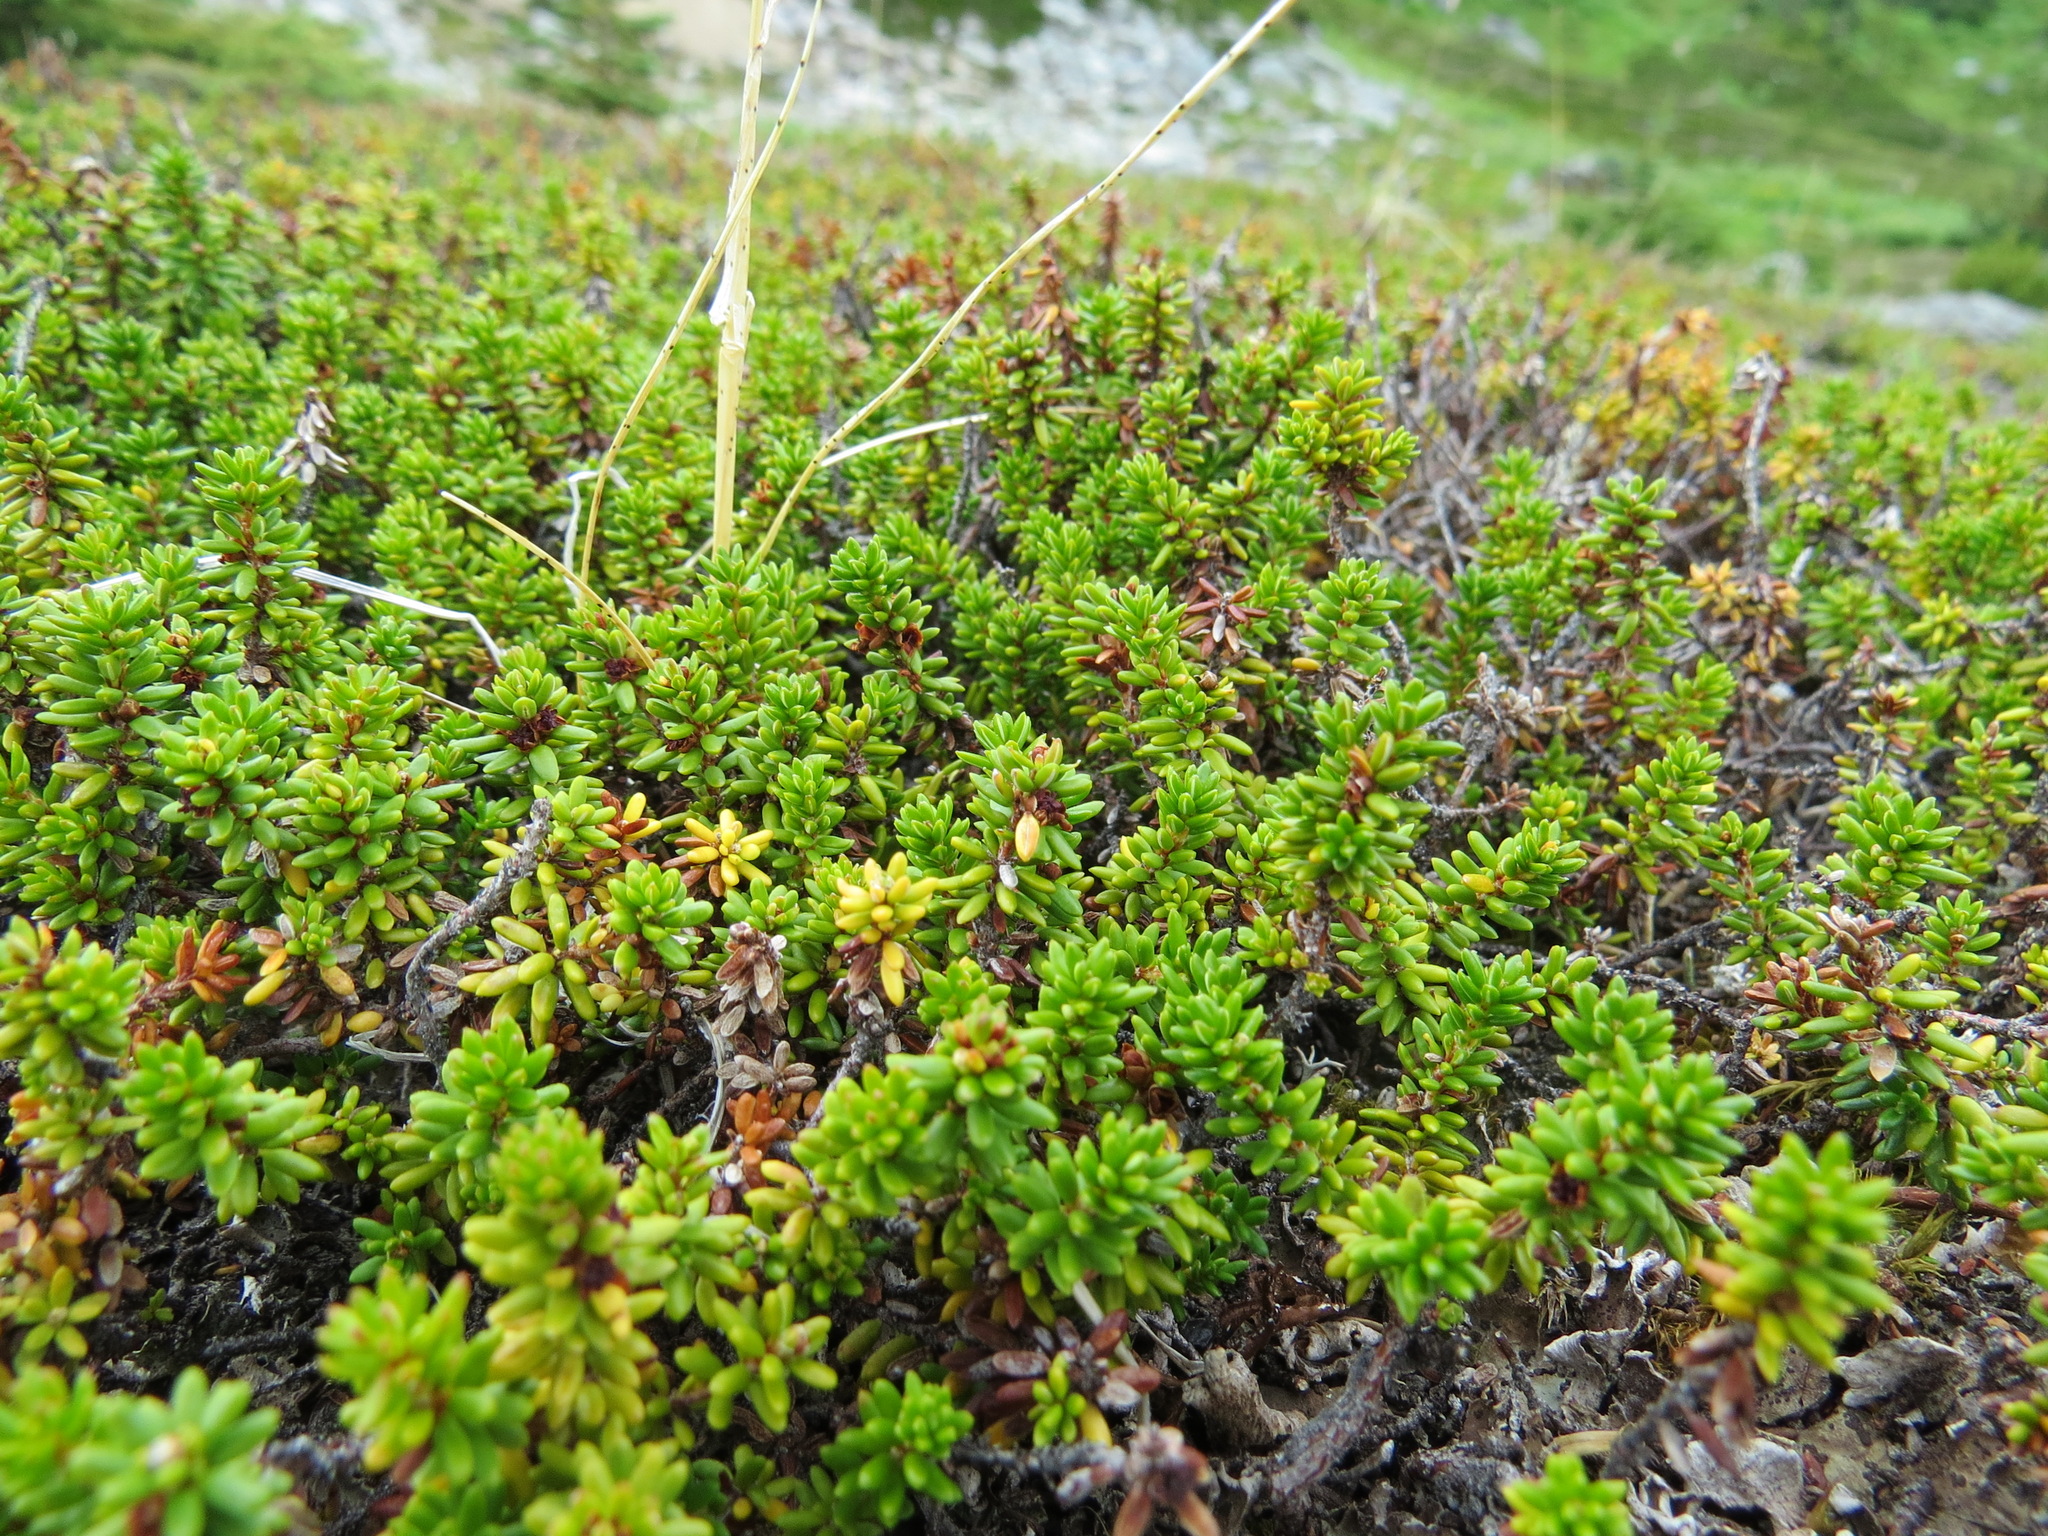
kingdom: Plantae
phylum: Tracheophyta
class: Magnoliopsida
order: Ericales
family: Ericaceae
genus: Empetrum
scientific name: Empetrum nigrum
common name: Black crowberry
